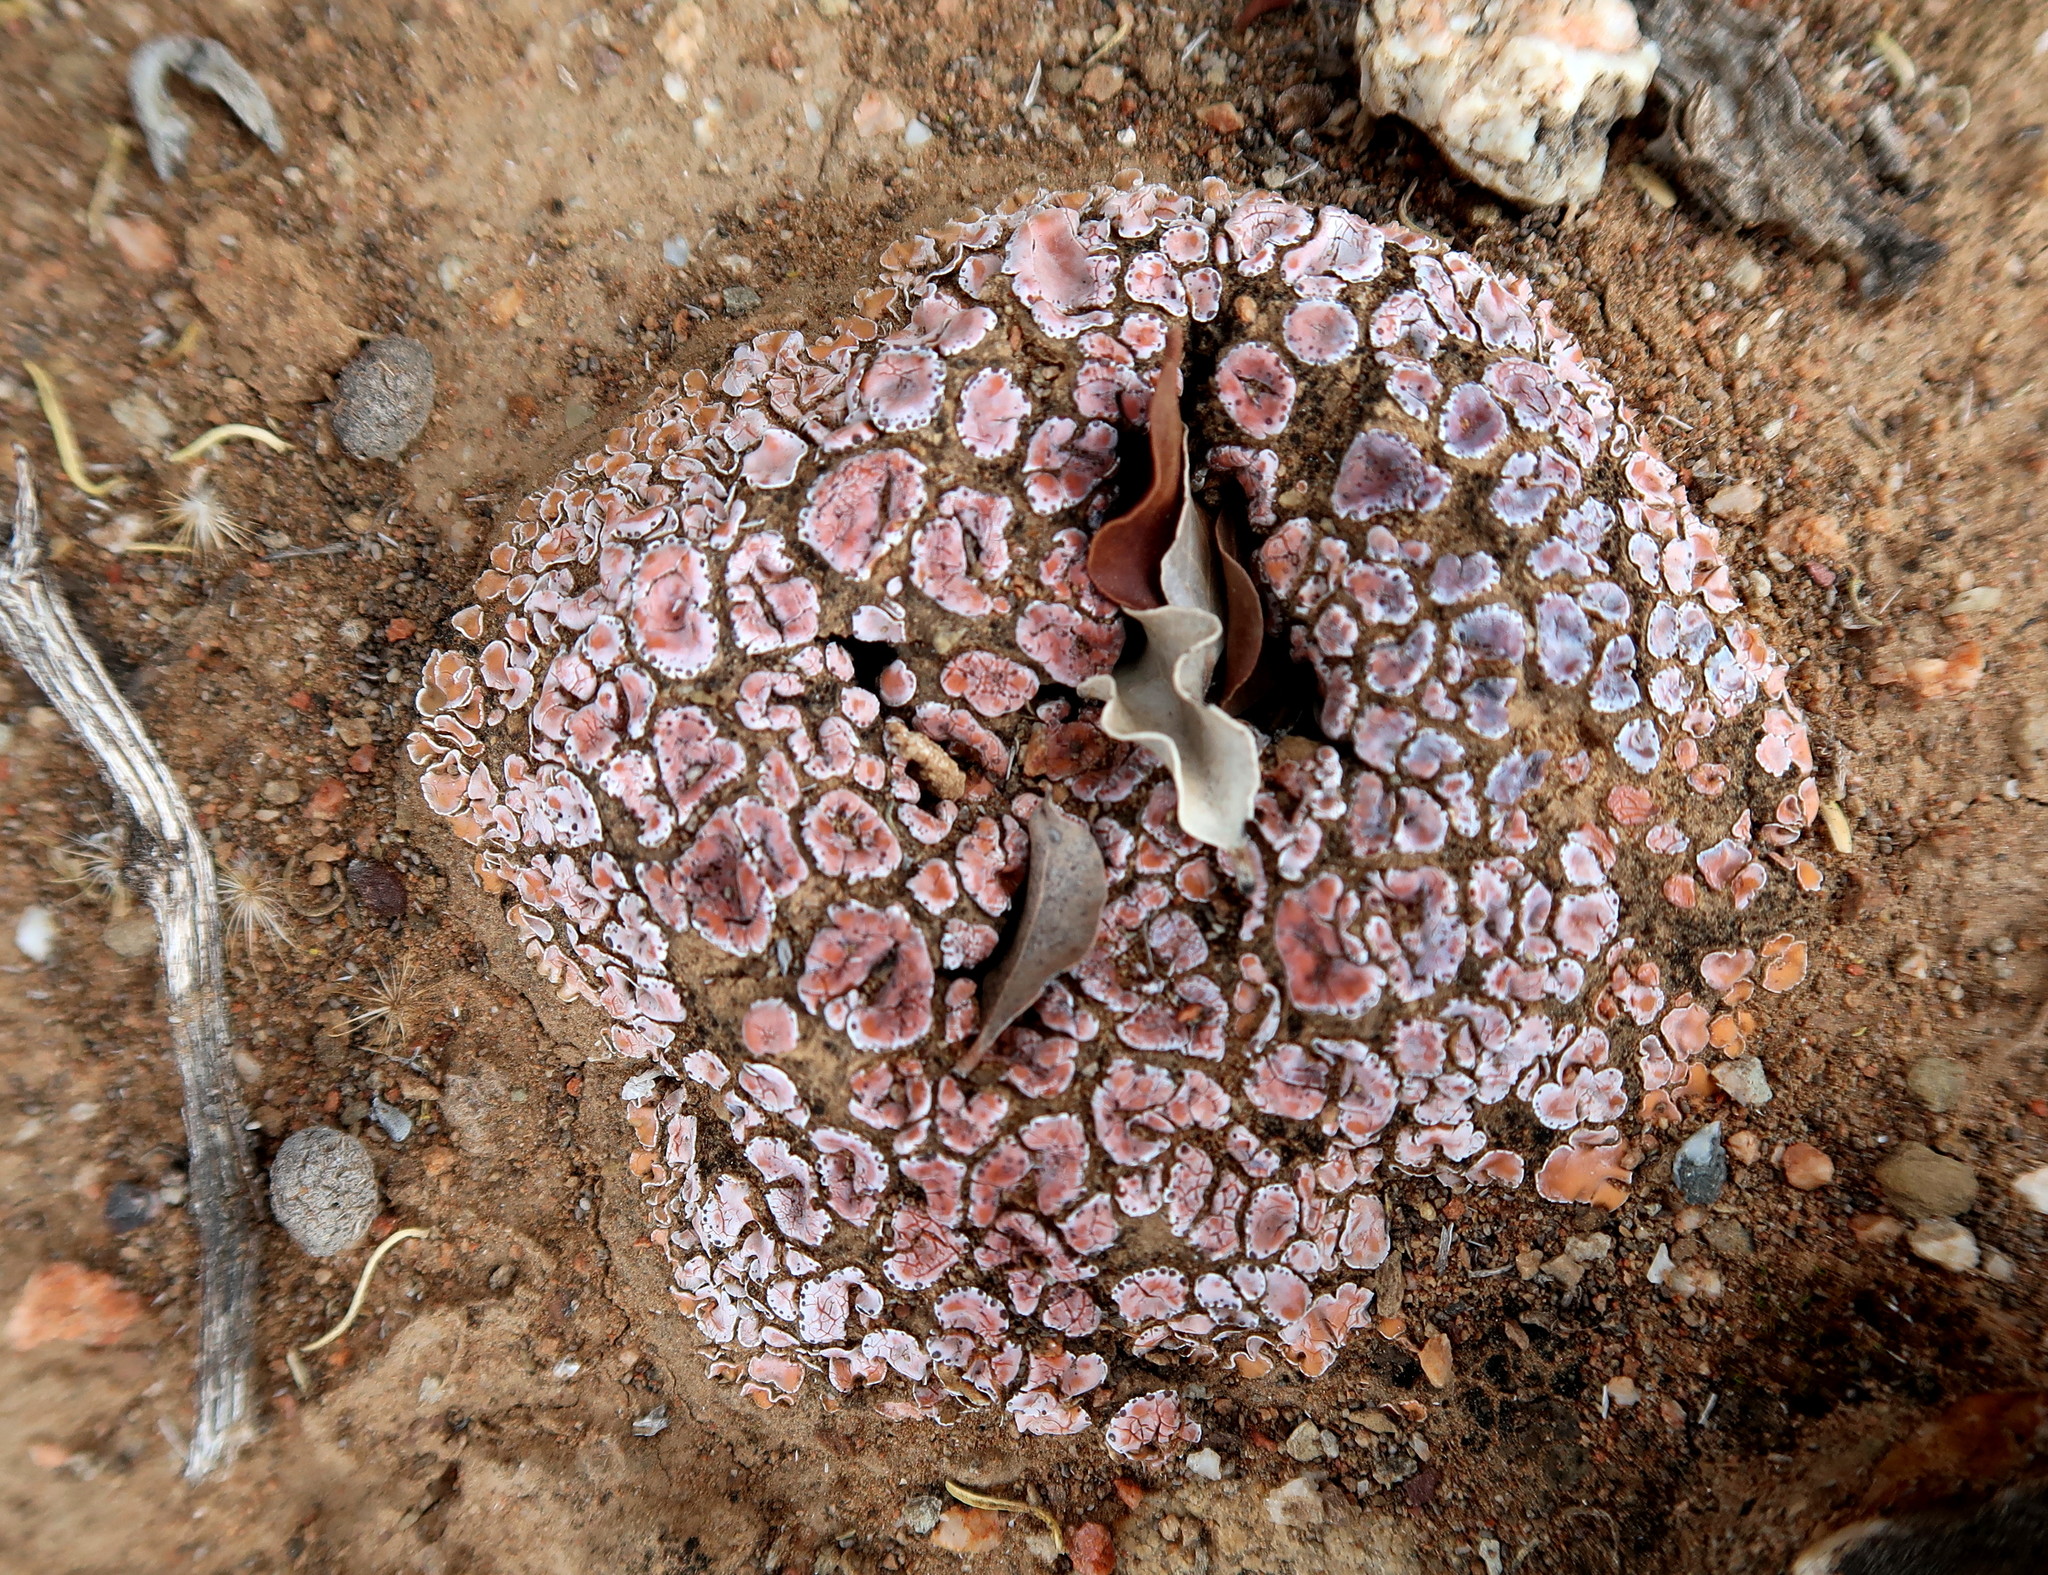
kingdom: Fungi
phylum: Ascomycota
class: Lecanoromycetes
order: Lecanorales
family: Psoraceae
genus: Psora
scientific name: Psora crenata
